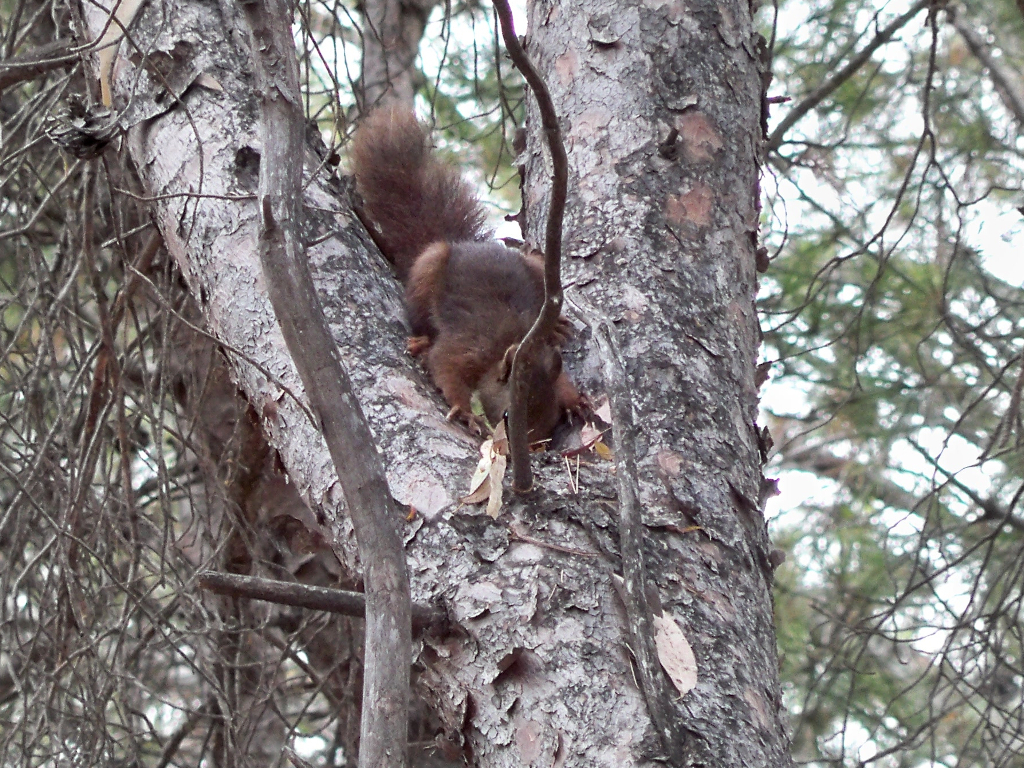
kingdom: Animalia
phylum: Chordata
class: Mammalia
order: Rodentia
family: Sciuridae
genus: Sciurus
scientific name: Sciurus vulgaris
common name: Eurasian red squirrel
